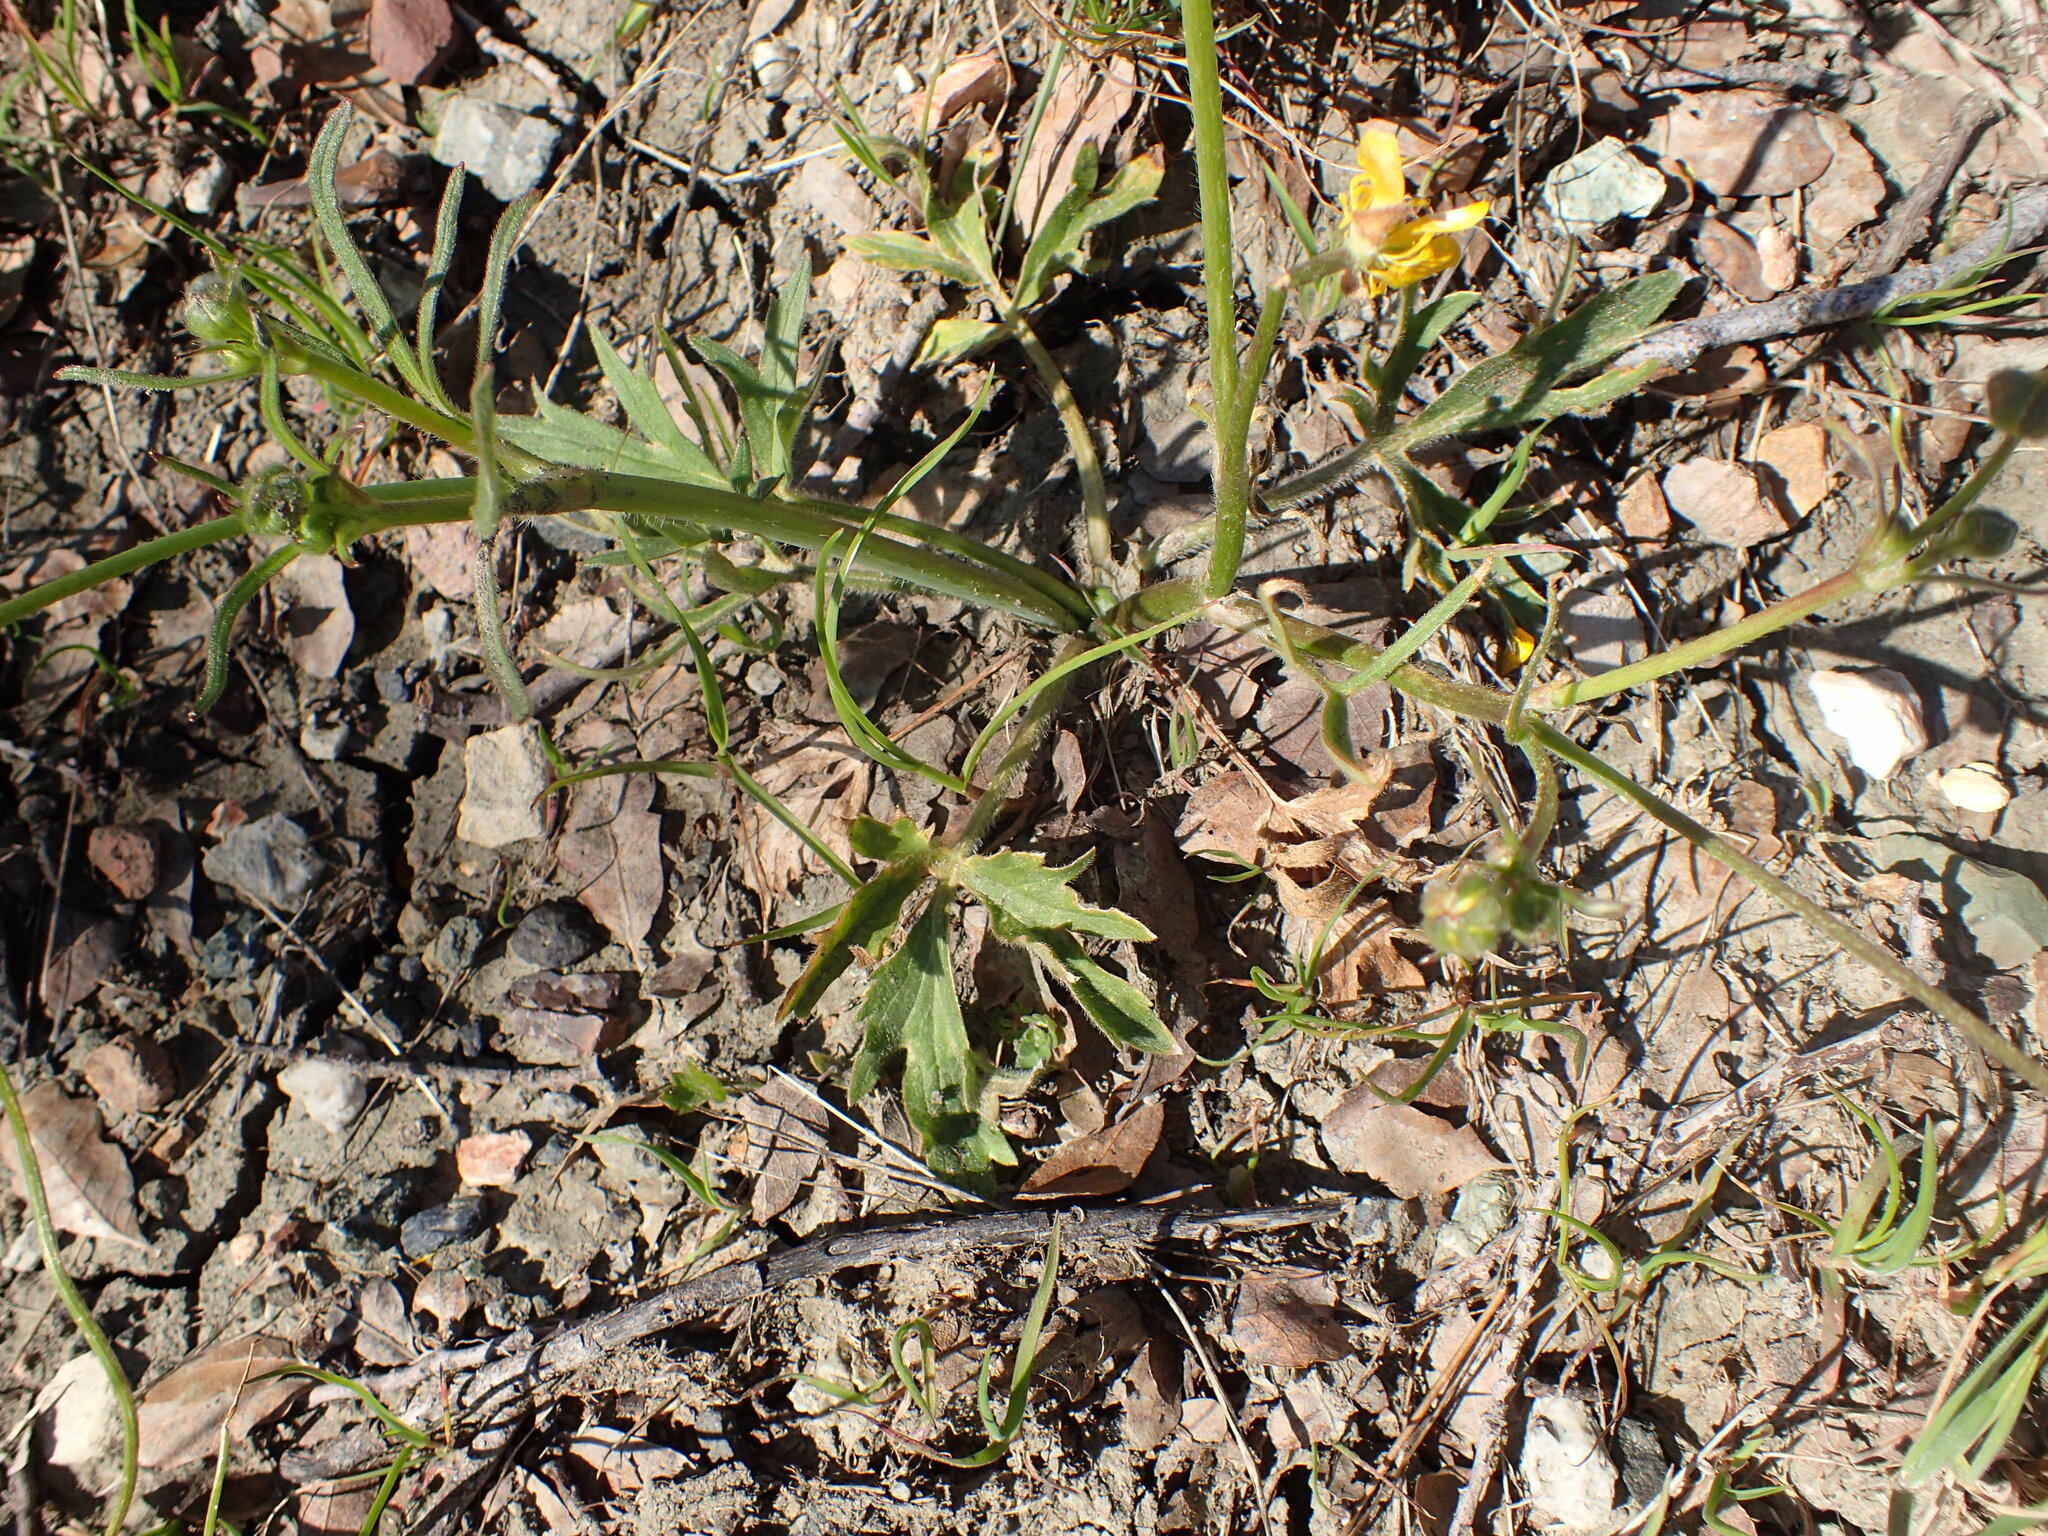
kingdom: Plantae
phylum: Tracheophyta
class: Magnoliopsida
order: Ranunculales
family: Ranunculaceae
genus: Ranunculus
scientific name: Ranunculus californicus
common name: California buttercup
